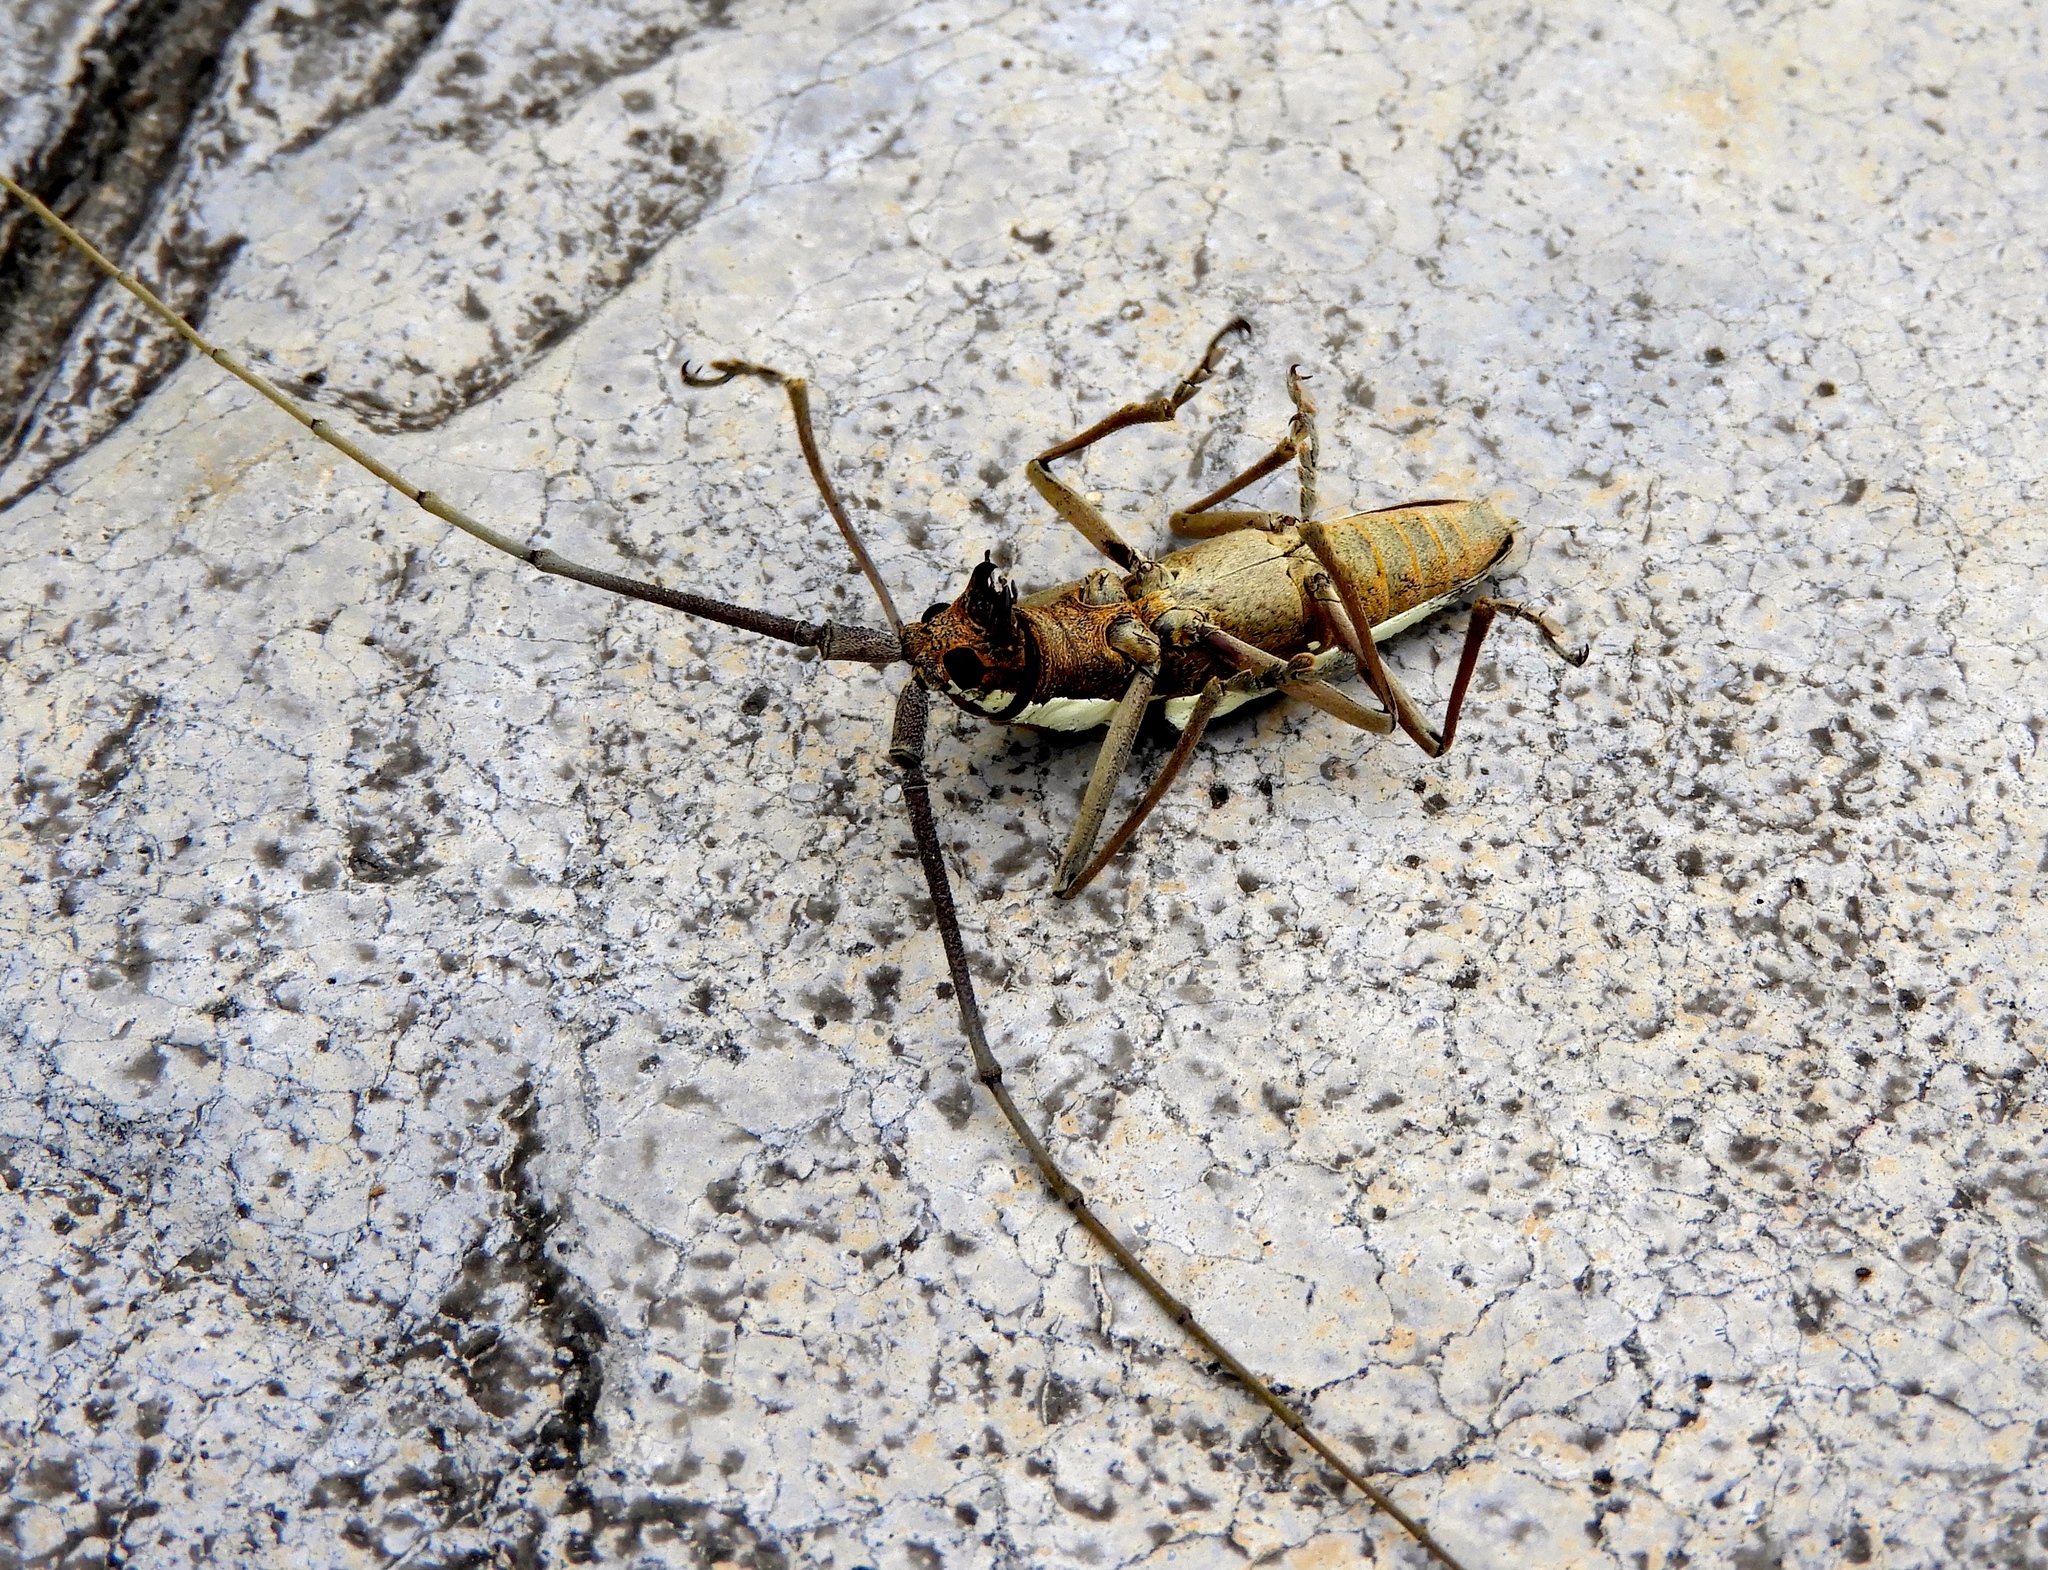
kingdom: Animalia
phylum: Arthropoda
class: Insecta
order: Coleoptera
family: Cerambycidae
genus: Neoptychodes
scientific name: Neoptychodes trilineatus
